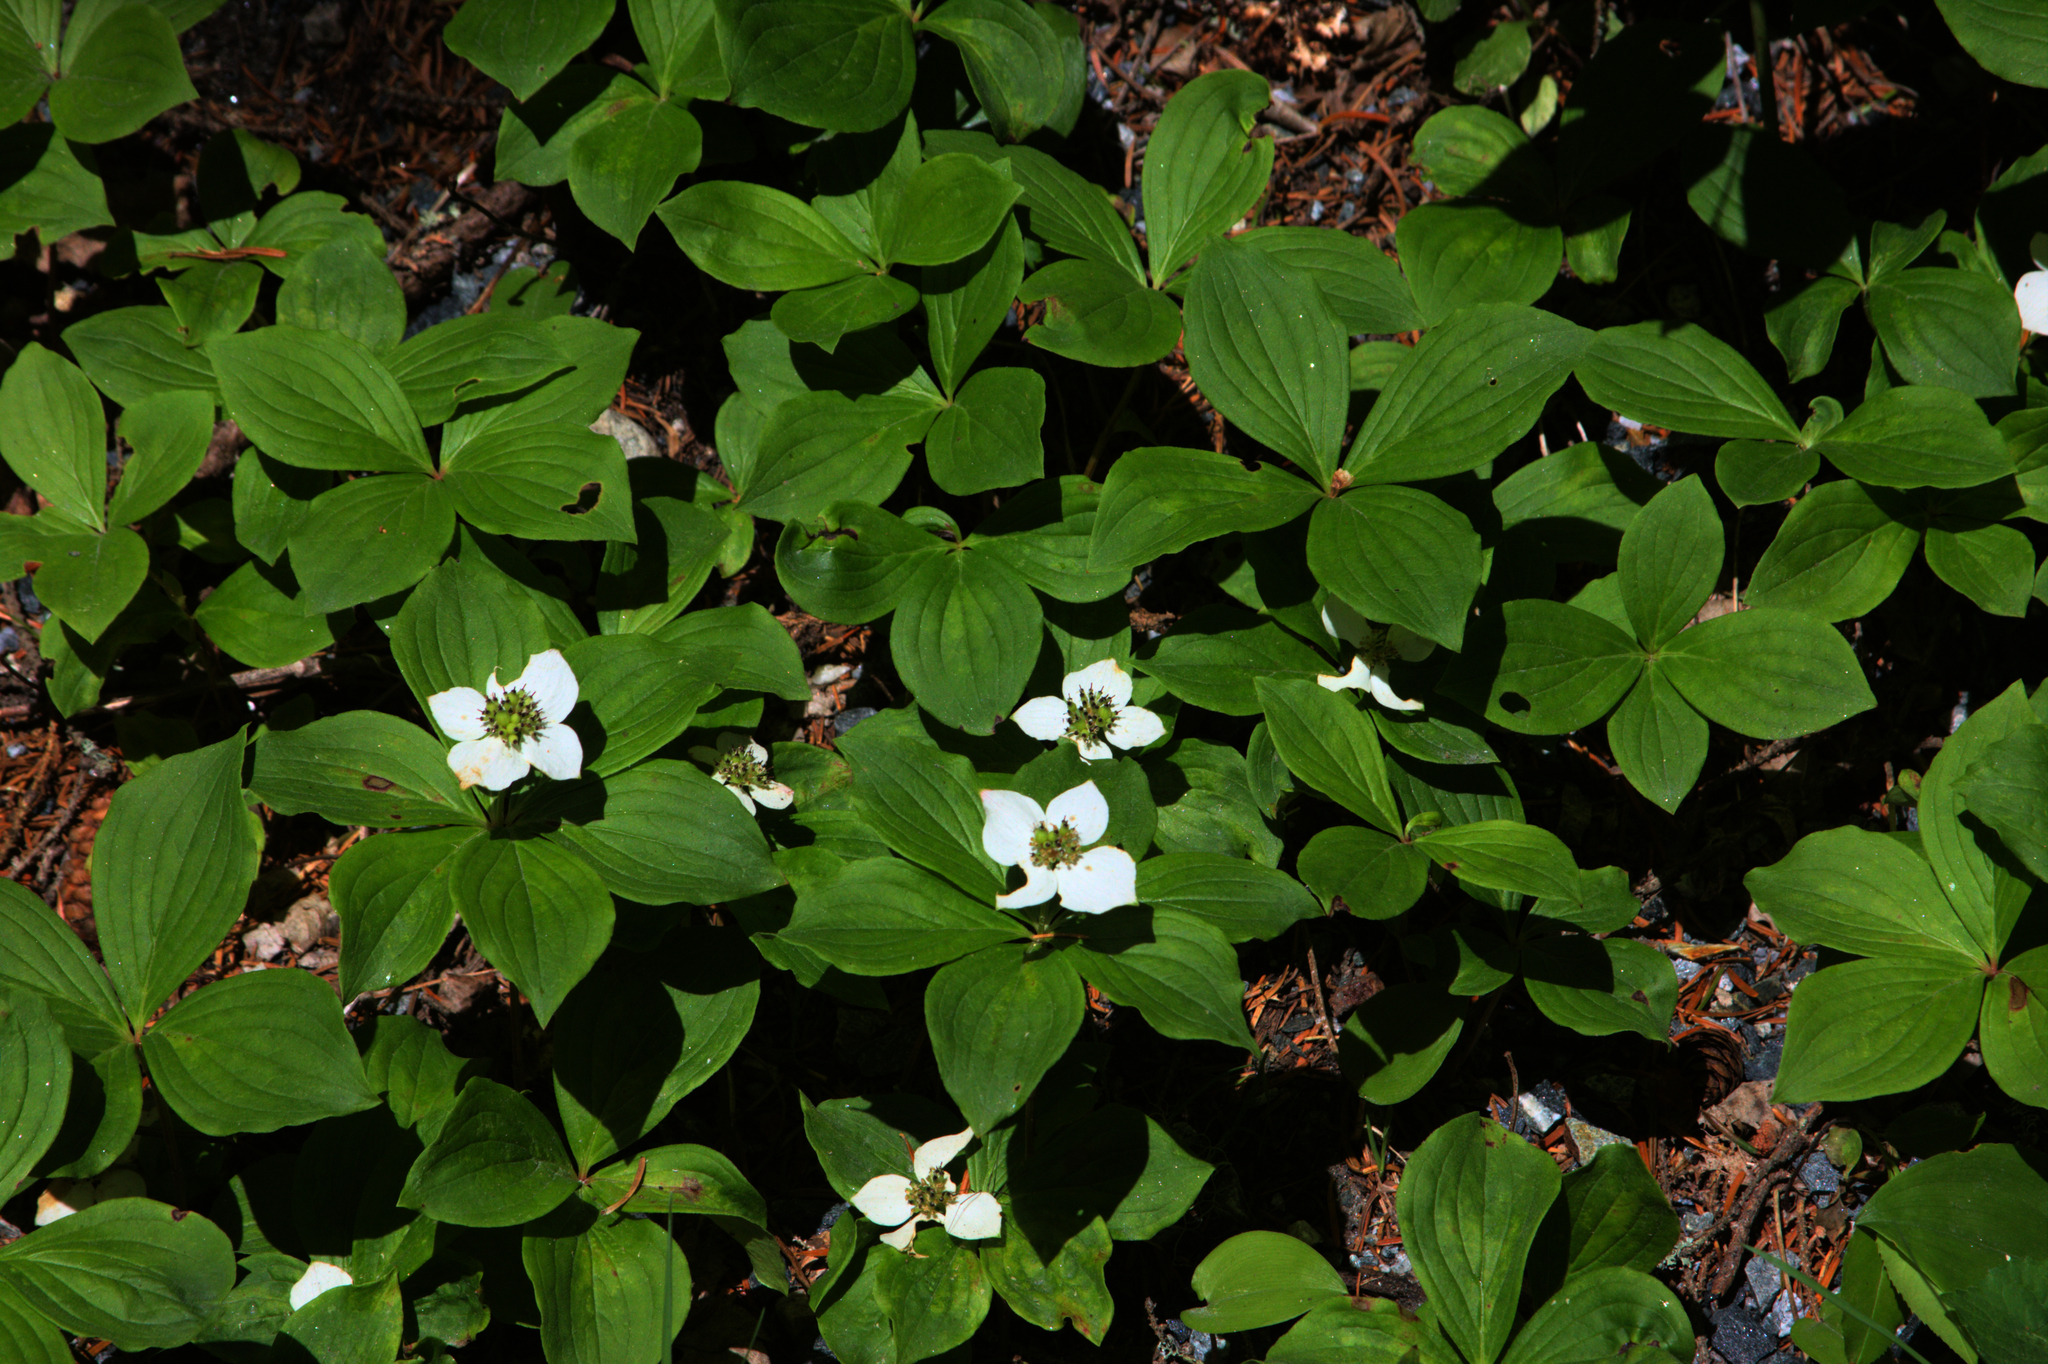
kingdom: Plantae
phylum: Tracheophyta
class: Magnoliopsida
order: Cornales
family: Cornaceae
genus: Cornus
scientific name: Cornus canadensis
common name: Creeping dogwood
